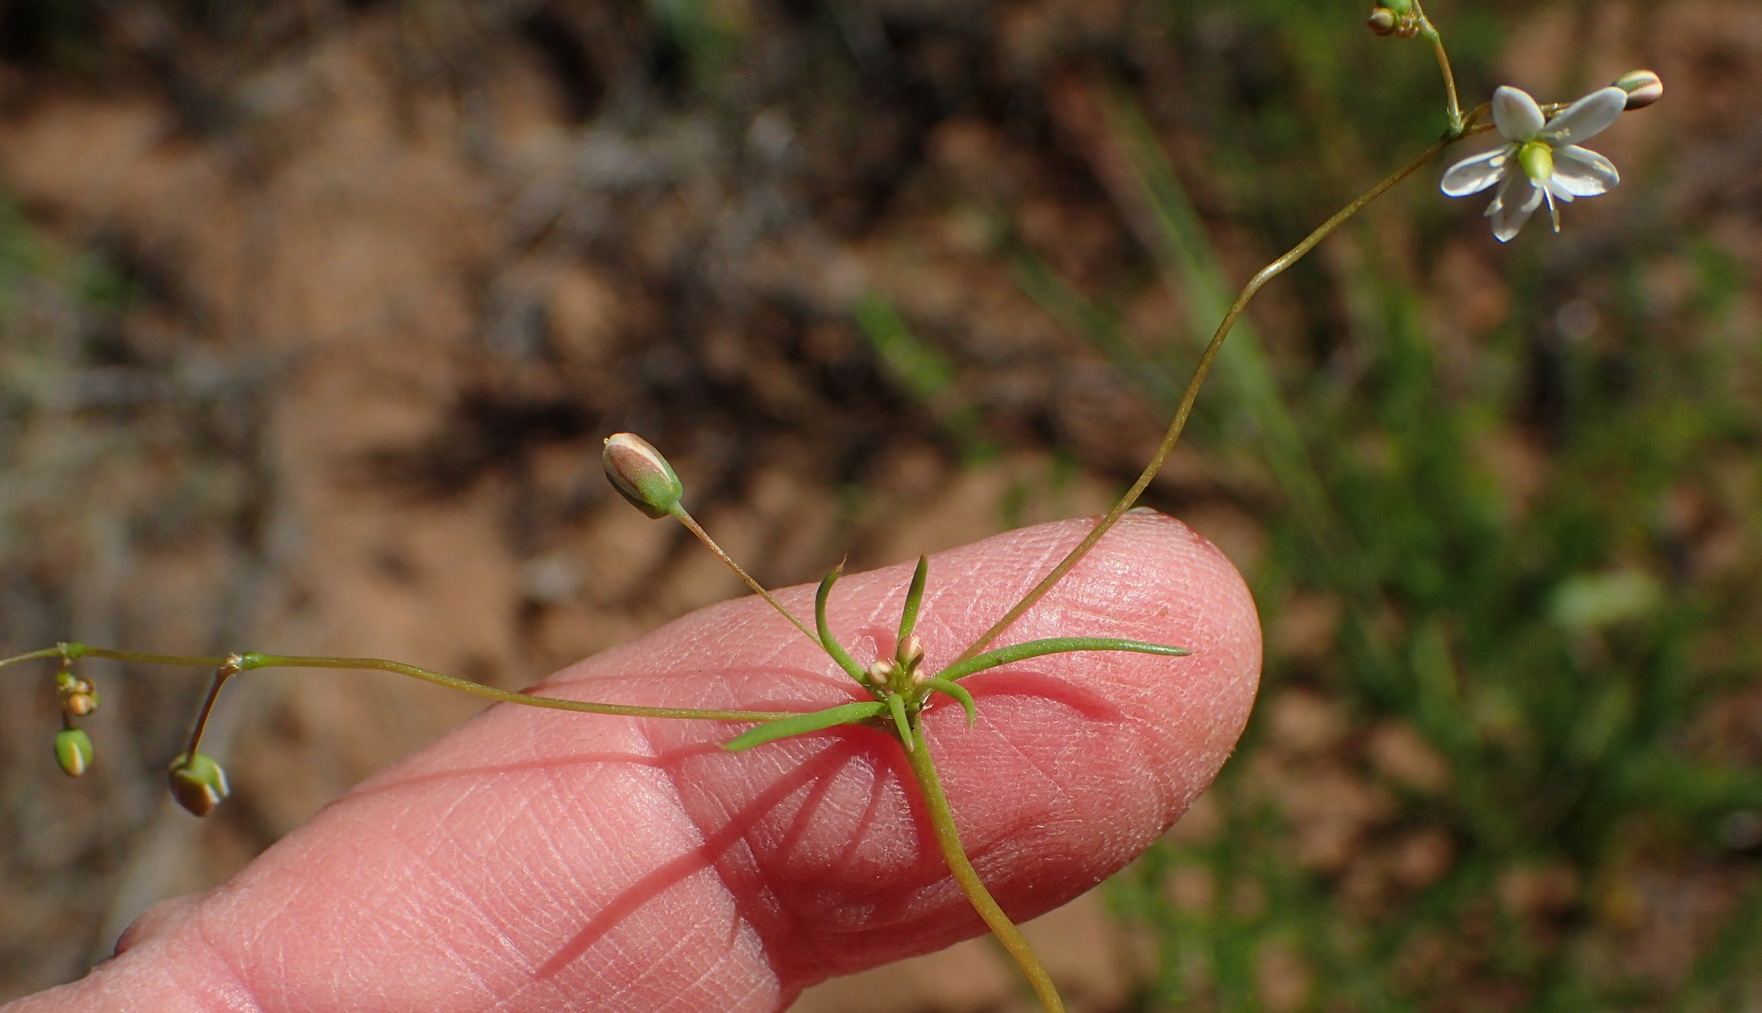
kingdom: Plantae
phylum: Tracheophyta
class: Magnoliopsida
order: Caryophyllales
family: Molluginaceae
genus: Pharnaceum
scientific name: Pharnaceum aurantium
